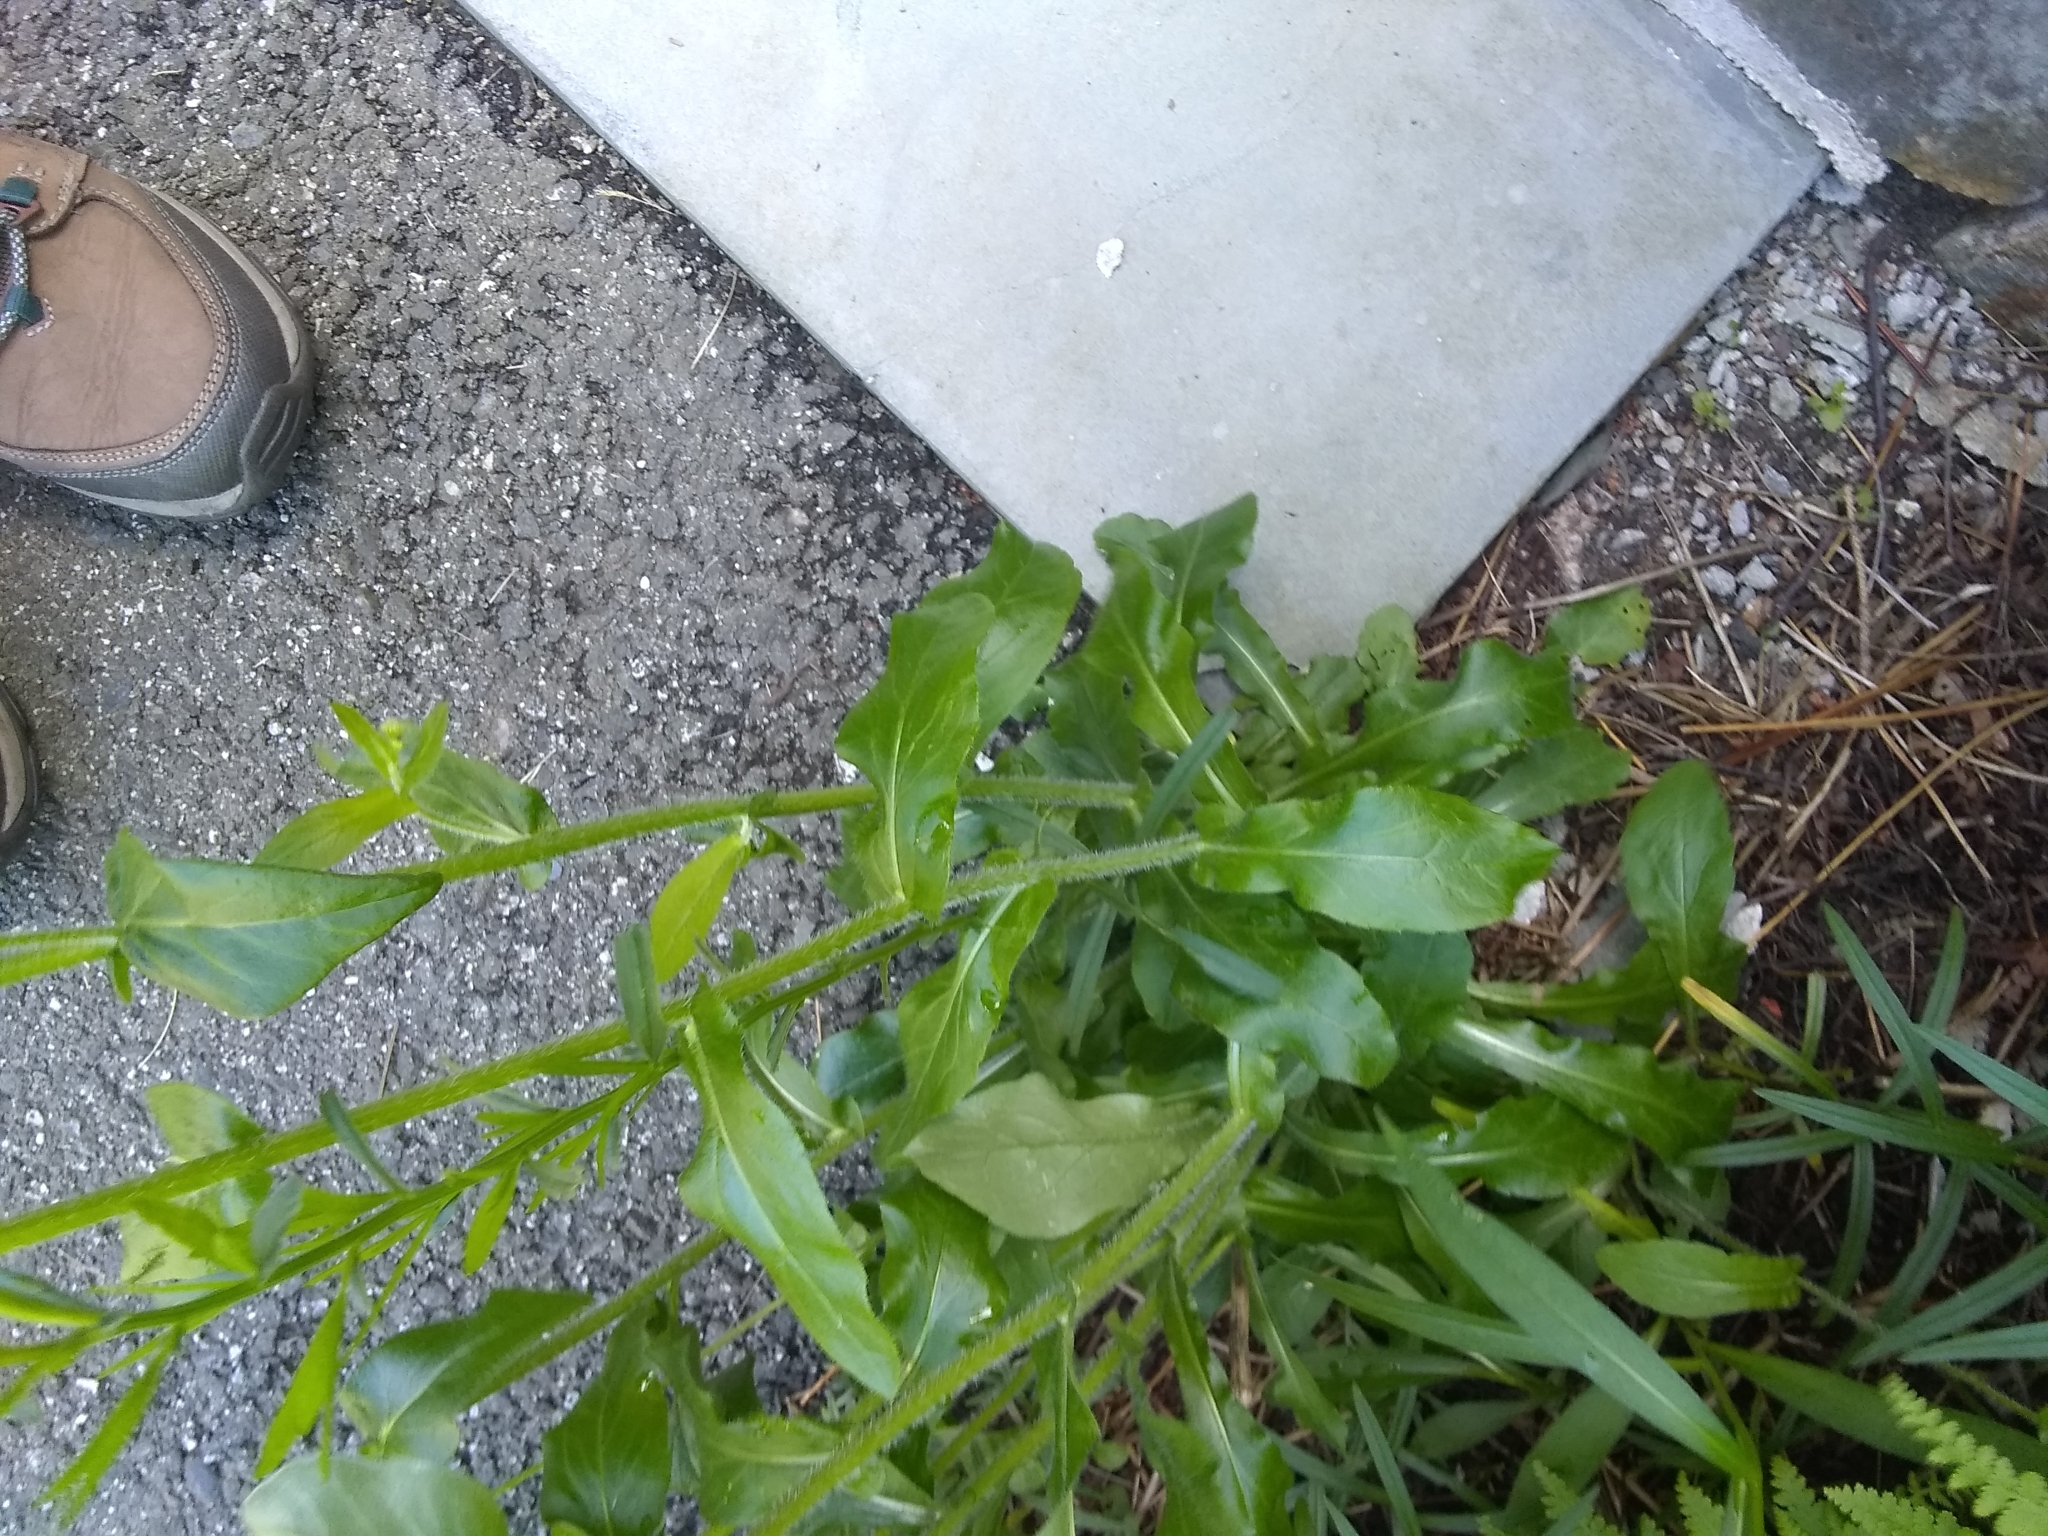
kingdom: Plantae
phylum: Tracheophyta
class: Magnoliopsida
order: Asterales
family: Asteraceae
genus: Erigeron
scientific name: Erigeron philadelphicus
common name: Robin's-plantain
